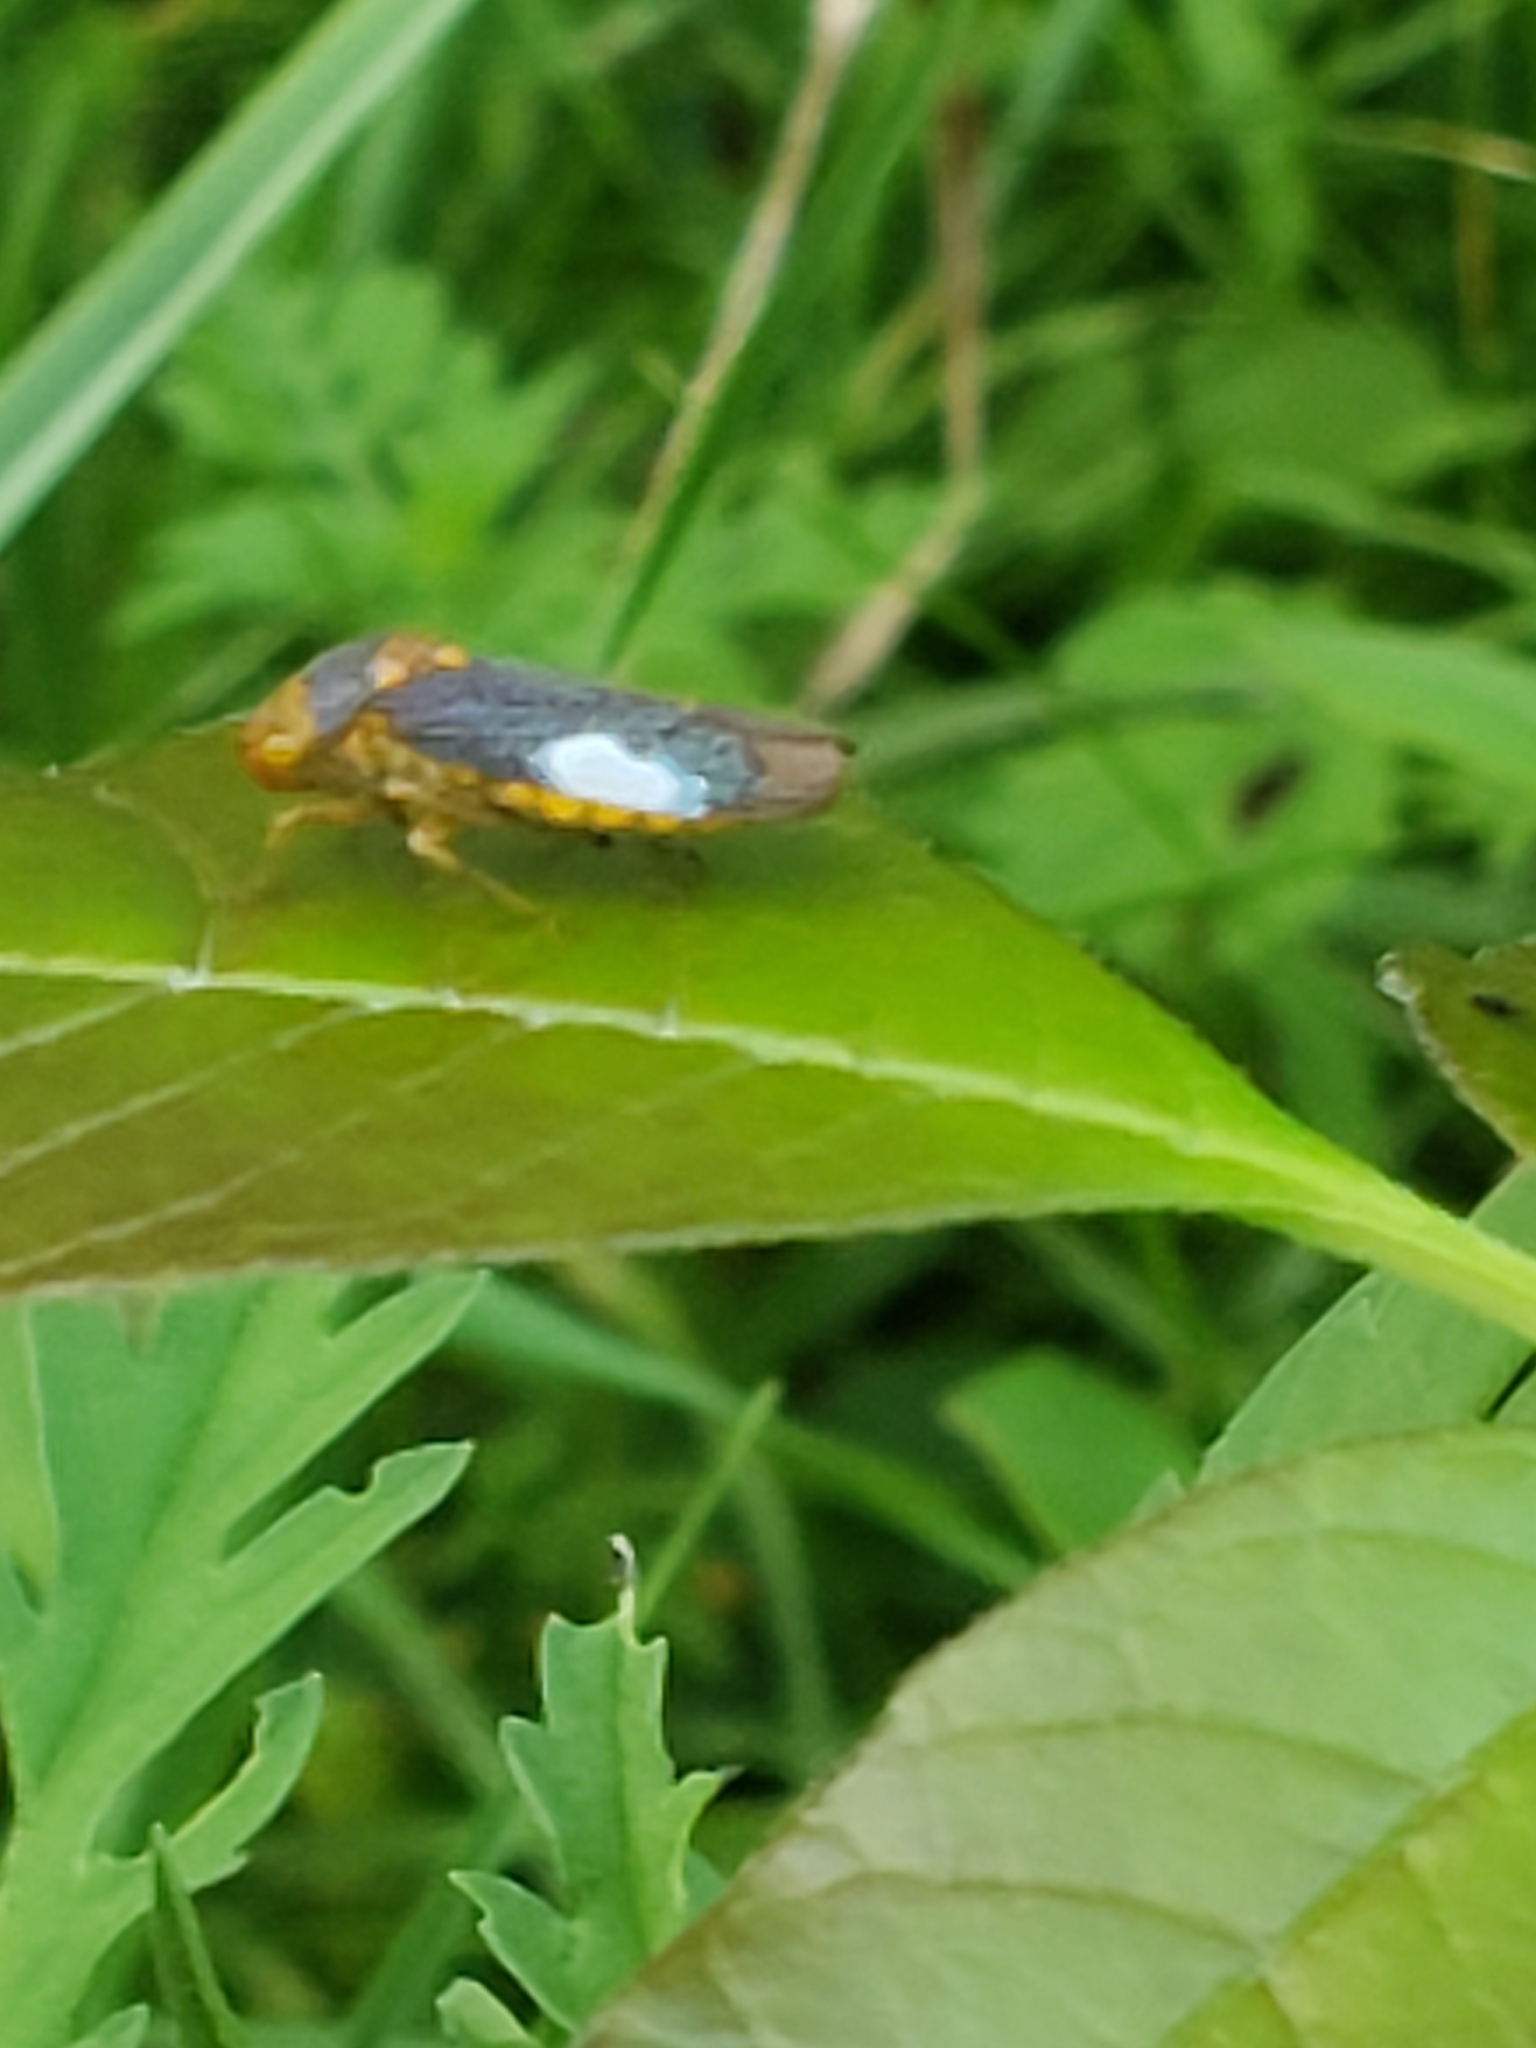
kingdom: Animalia
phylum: Arthropoda
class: Insecta
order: Hemiptera
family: Cicadellidae
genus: Oncometopia
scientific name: Oncometopia orbona
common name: Broad-headed sharpshooter
